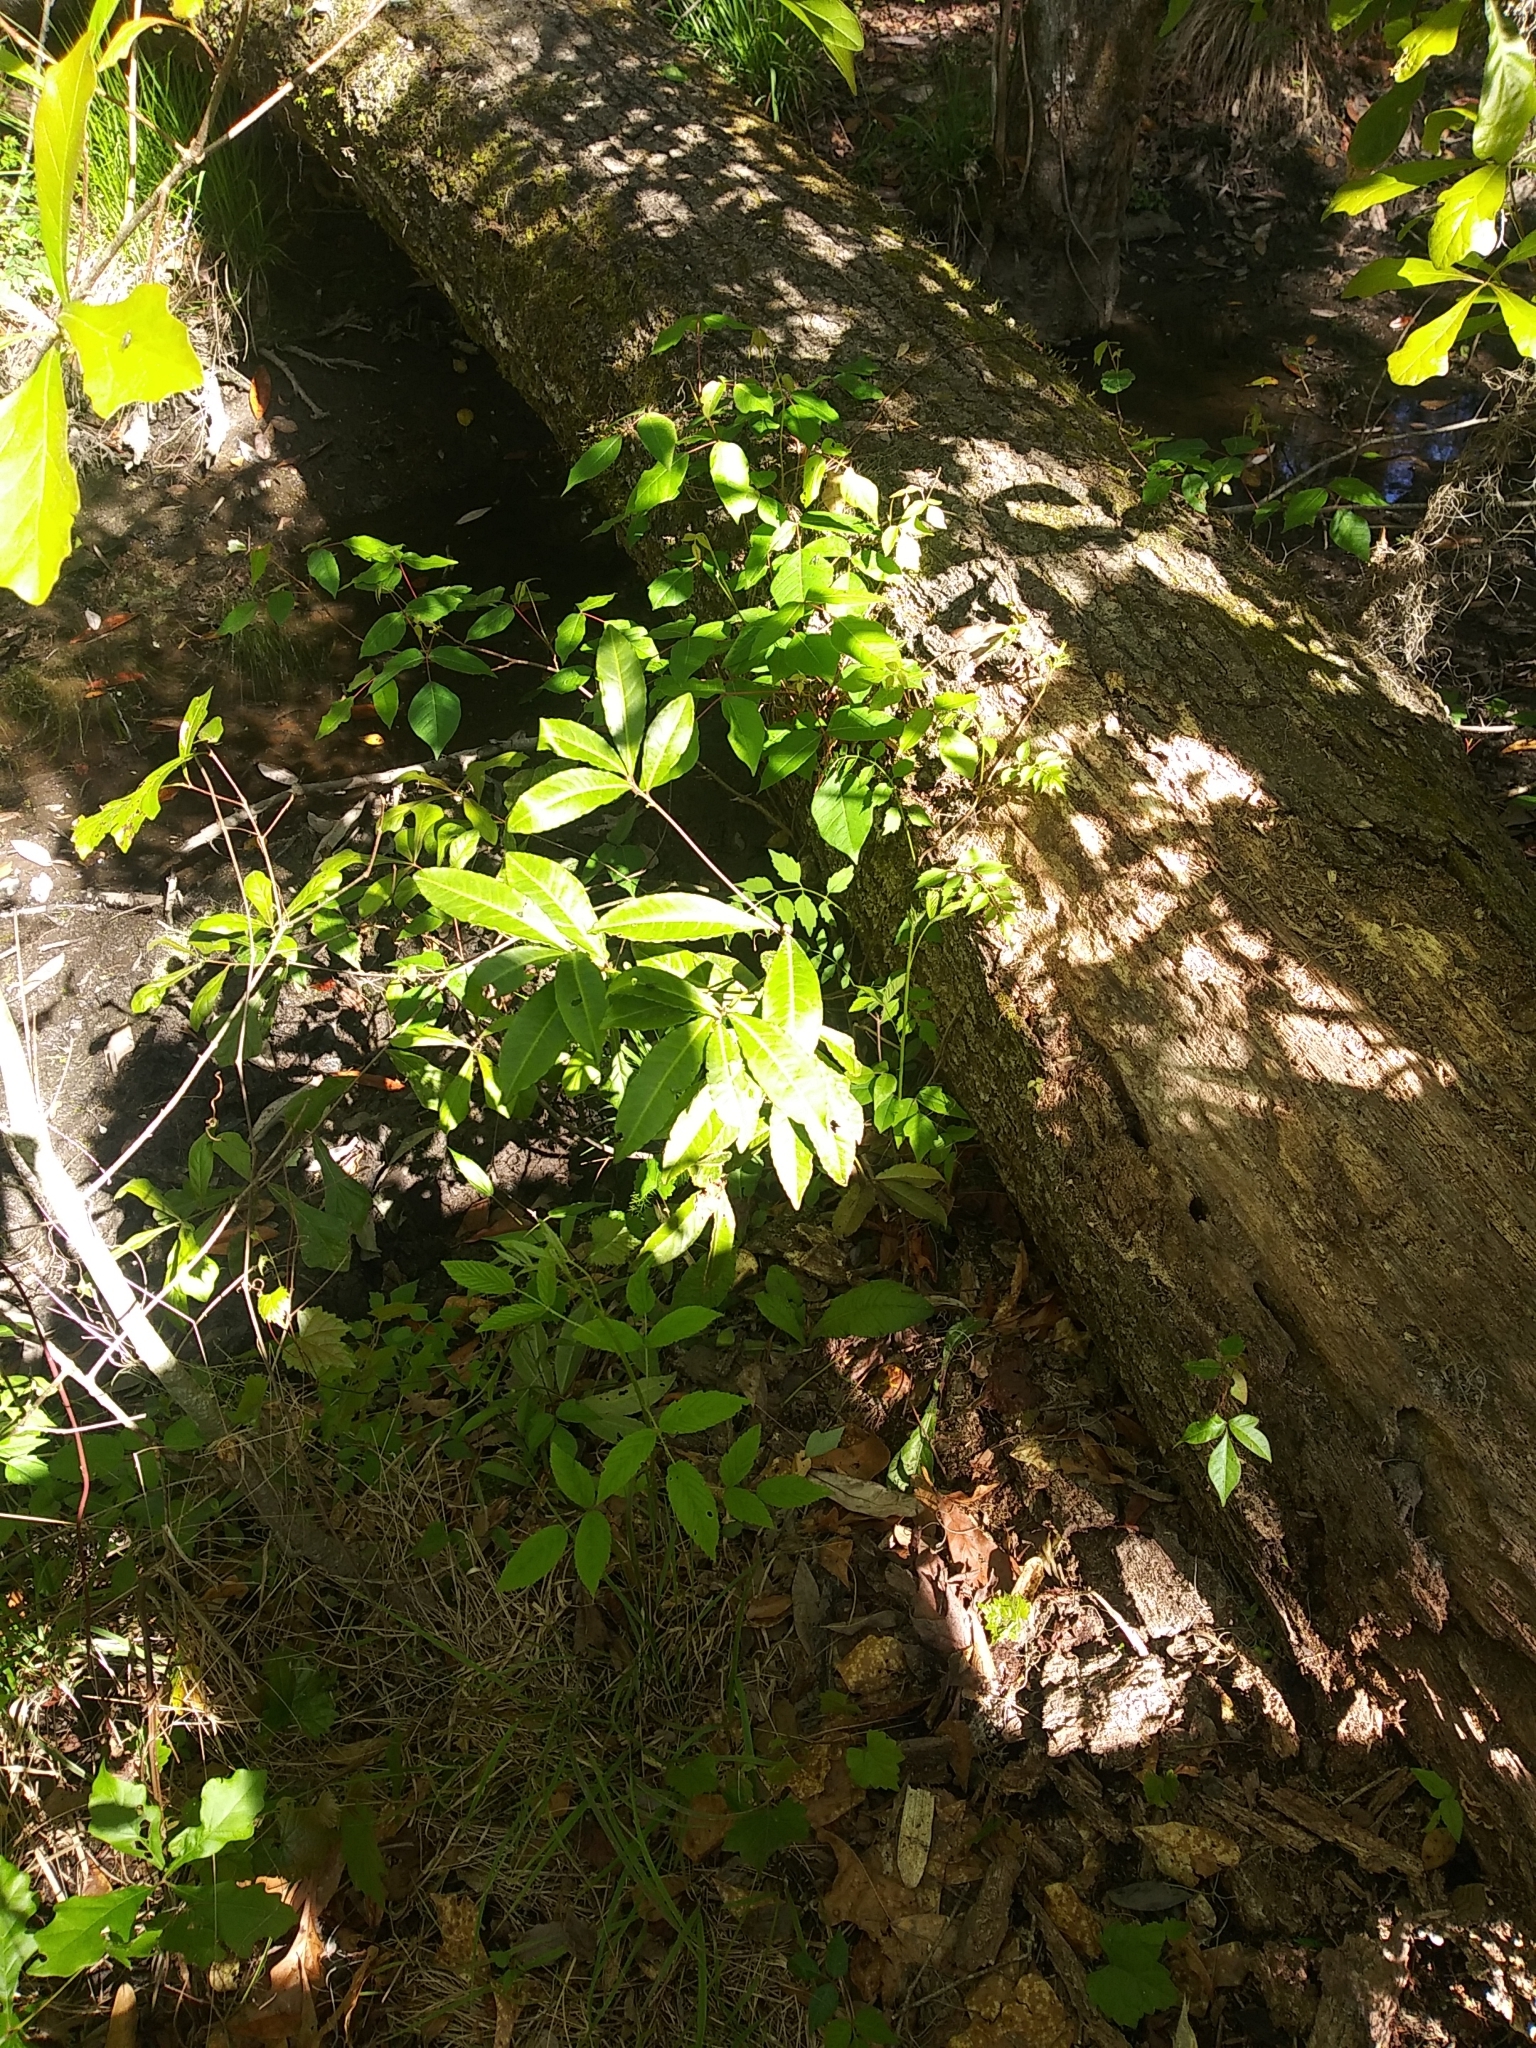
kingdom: Plantae
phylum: Tracheophyta
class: Magnoliopsida
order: Ericales
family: Primulaceae
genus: Ardisia
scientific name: Ardisia crenata
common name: Hen's eyes
